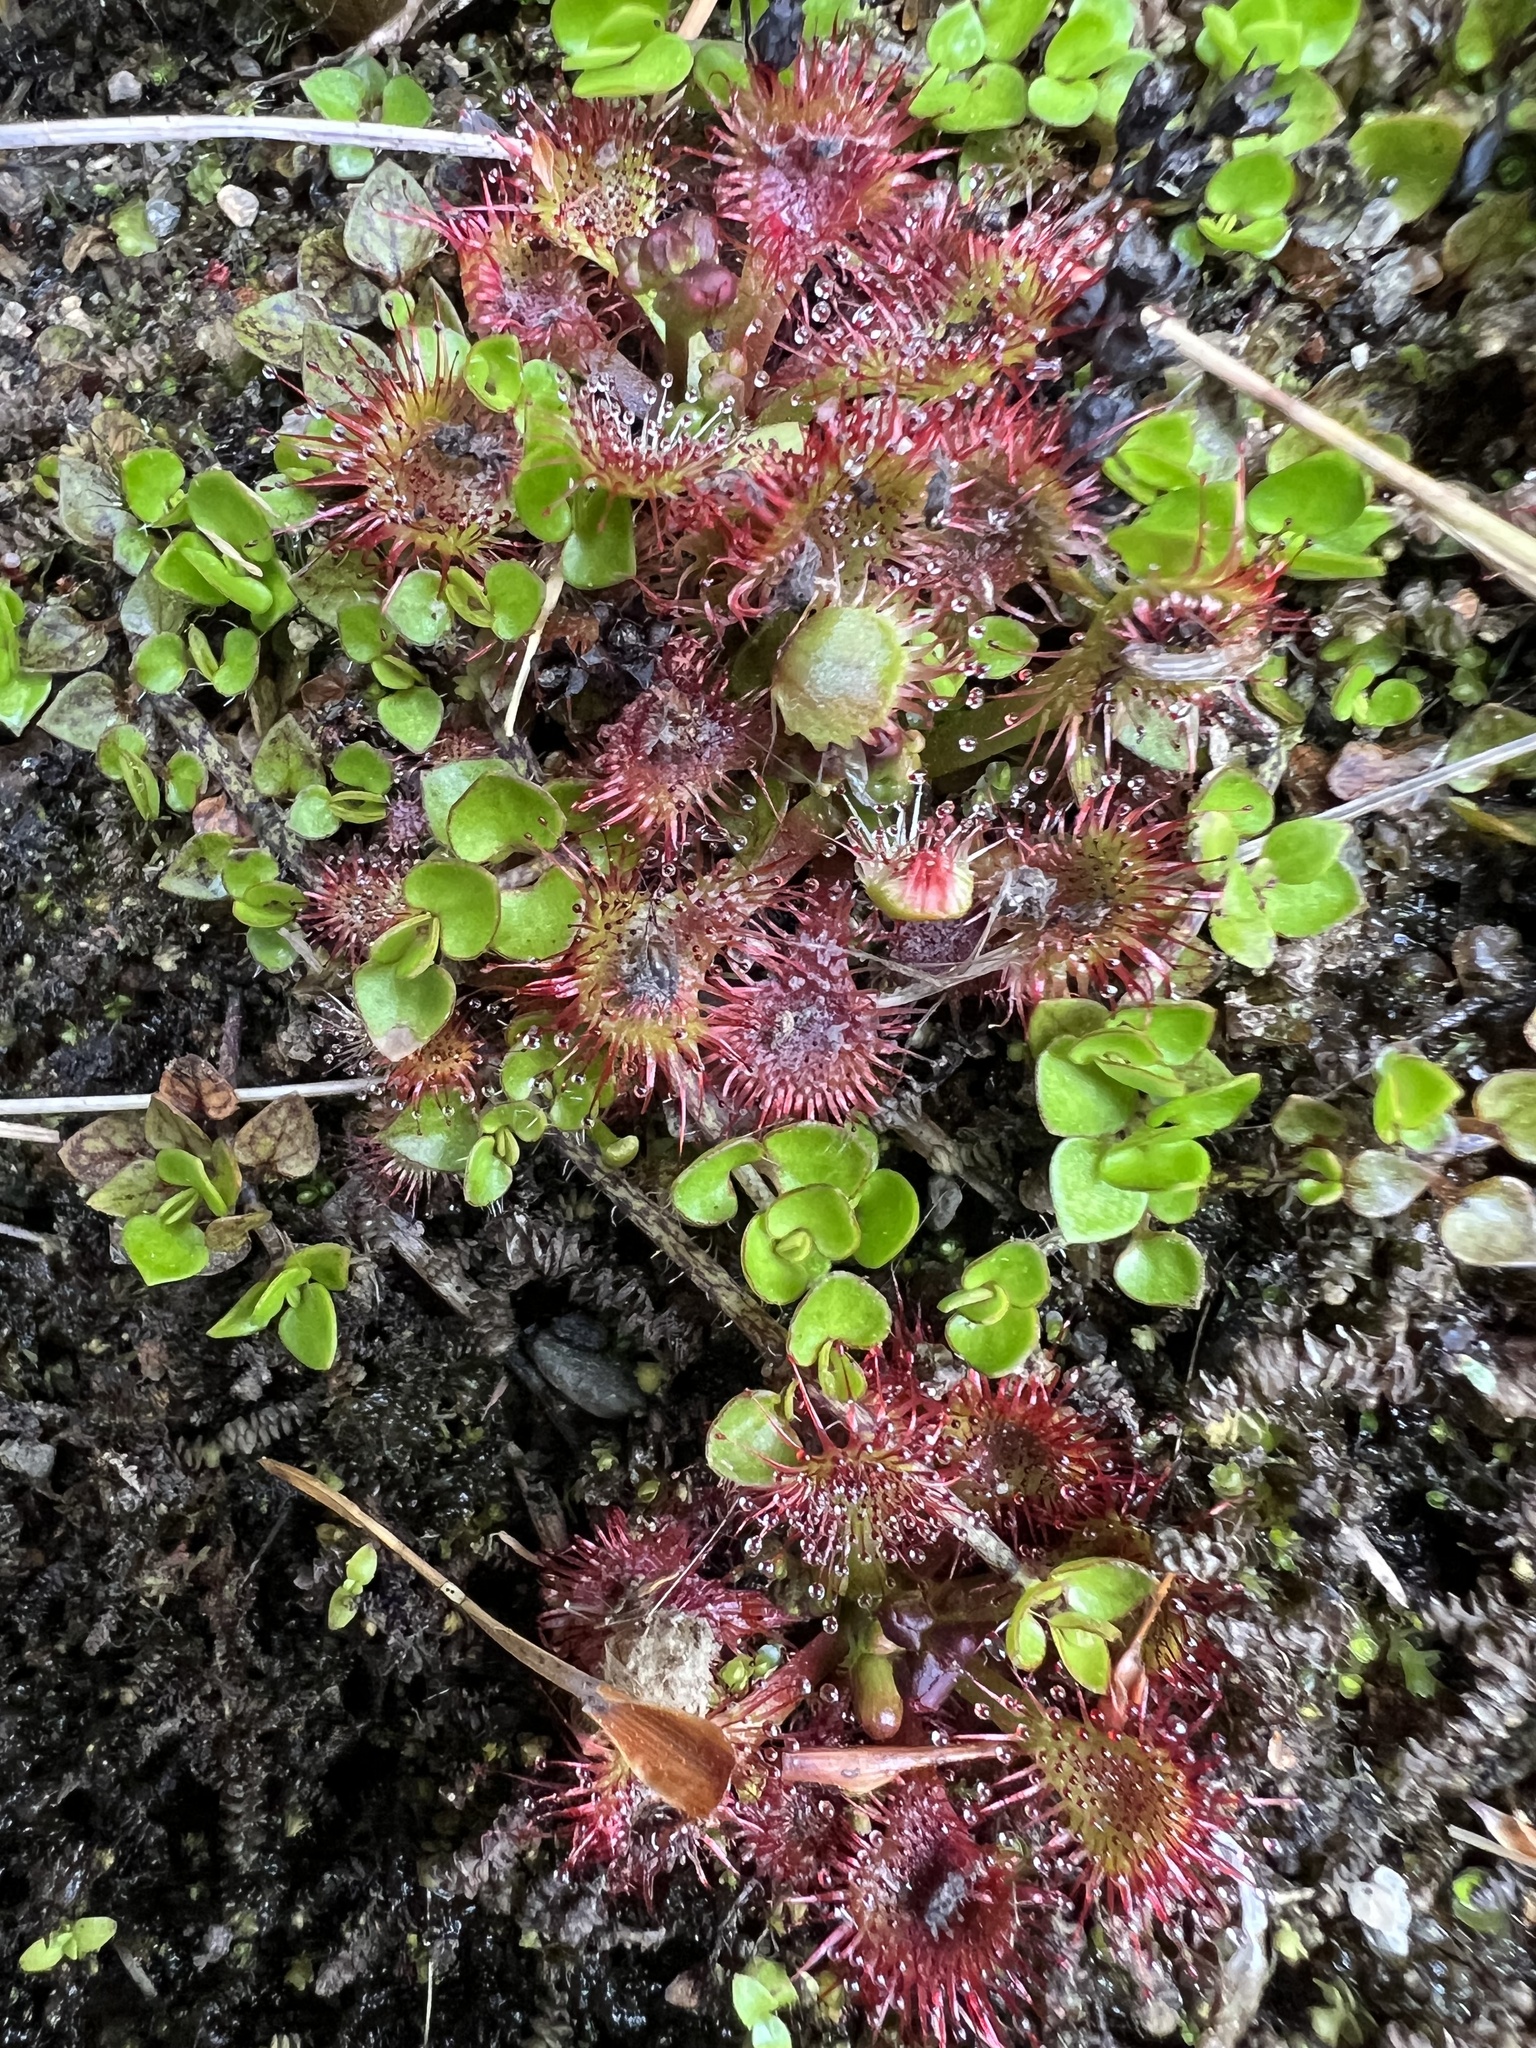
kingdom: Plantae
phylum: Tracheophyta
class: Magnoliopsida
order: Caryophyllales
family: Droseraceae
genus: Drosera
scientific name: Drosera spatulata
